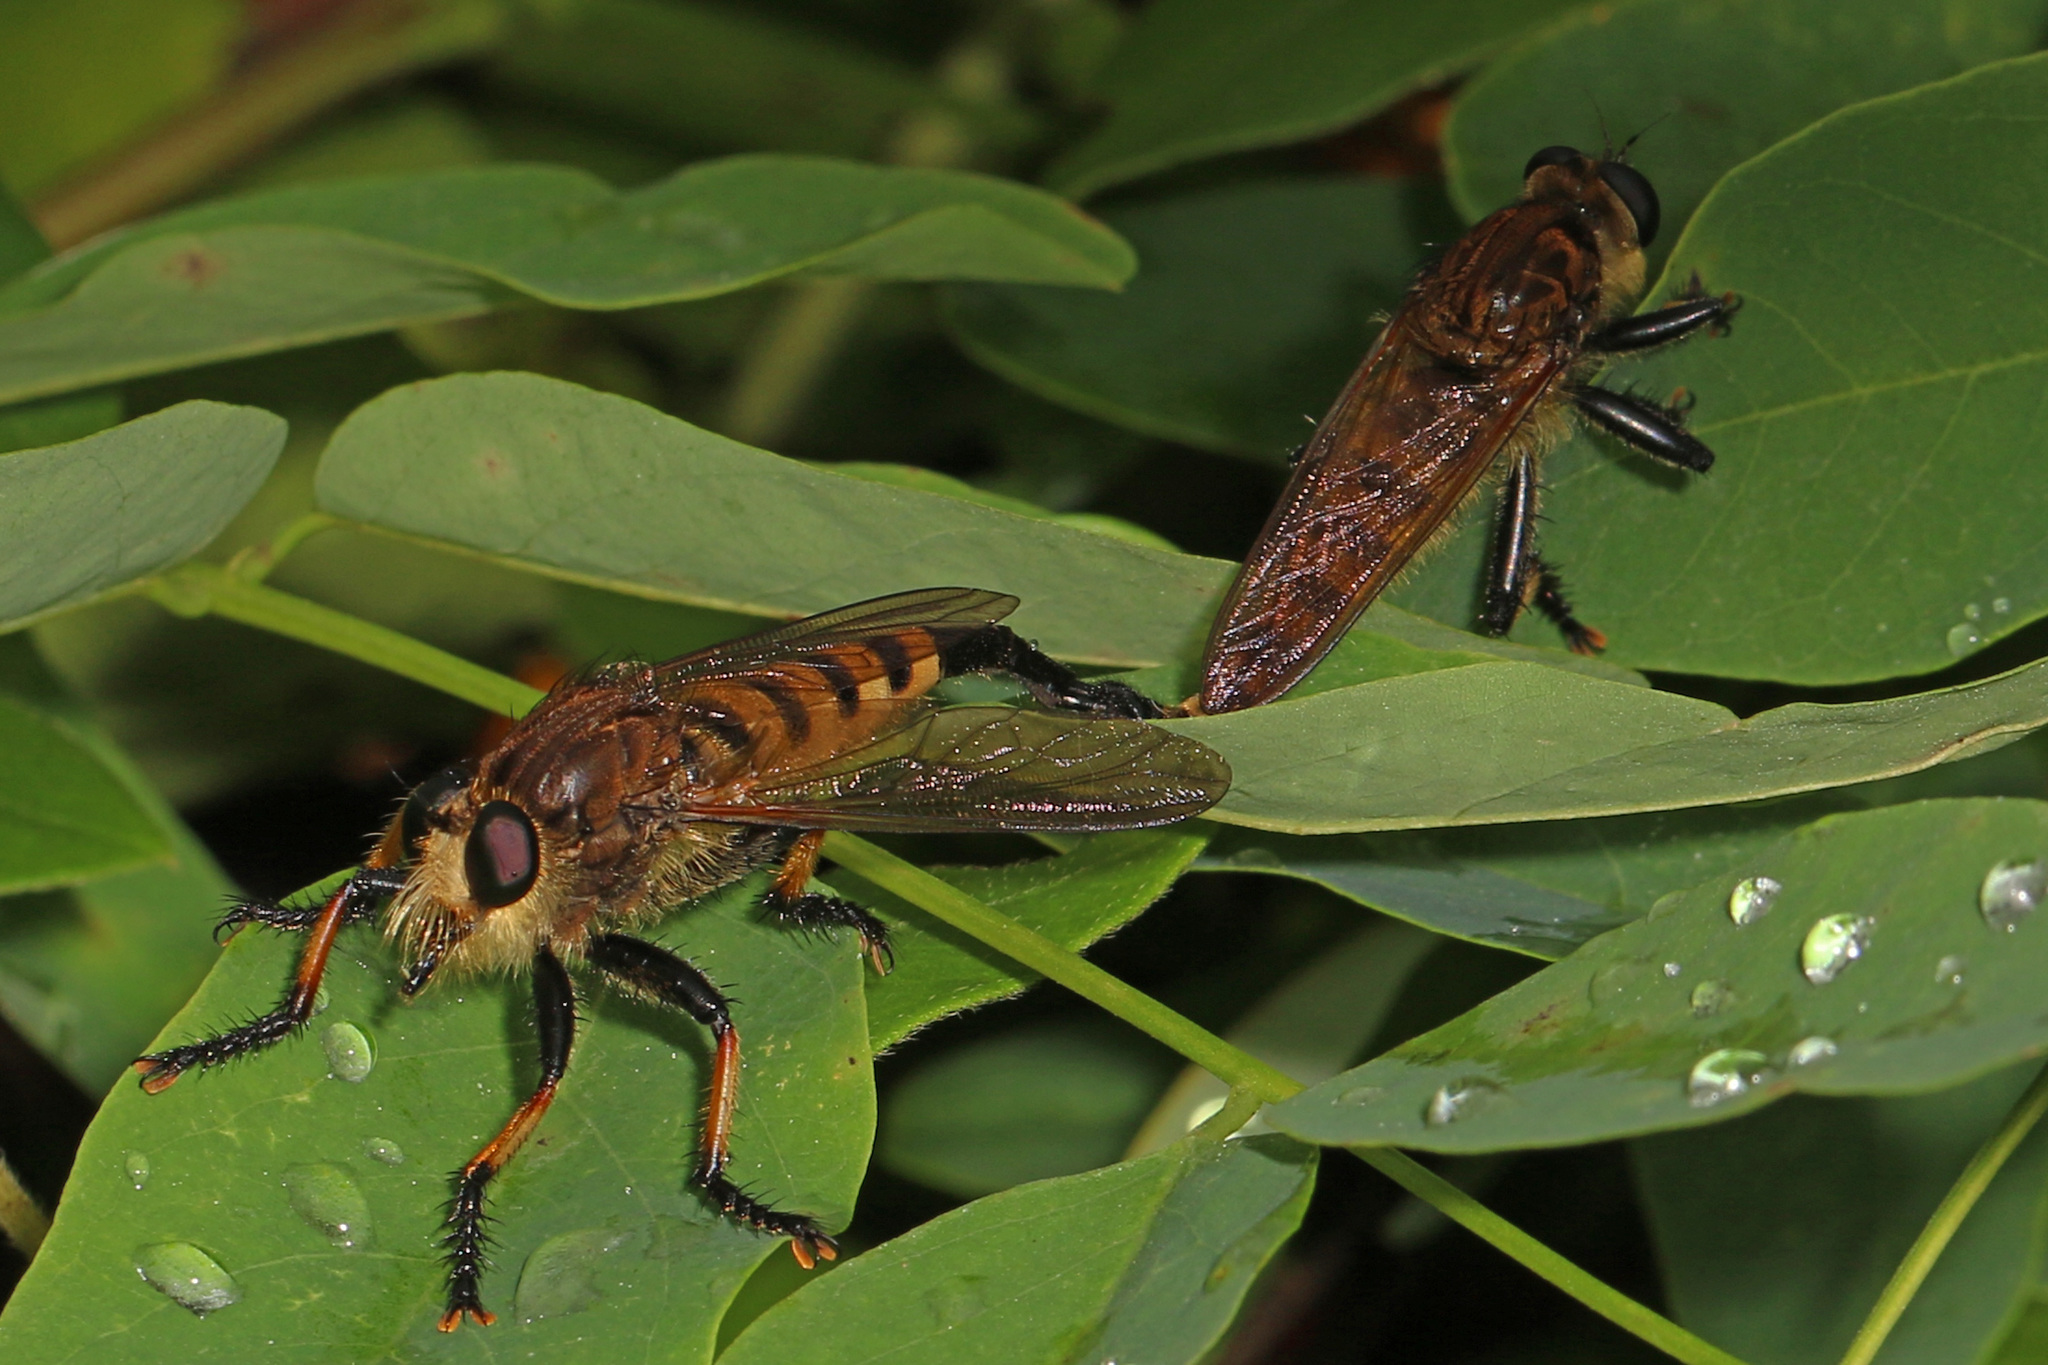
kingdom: Animalia
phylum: Arthropoda
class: Insecta
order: Diptera
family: Asilidae
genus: Promachus
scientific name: Promachus rufipes
